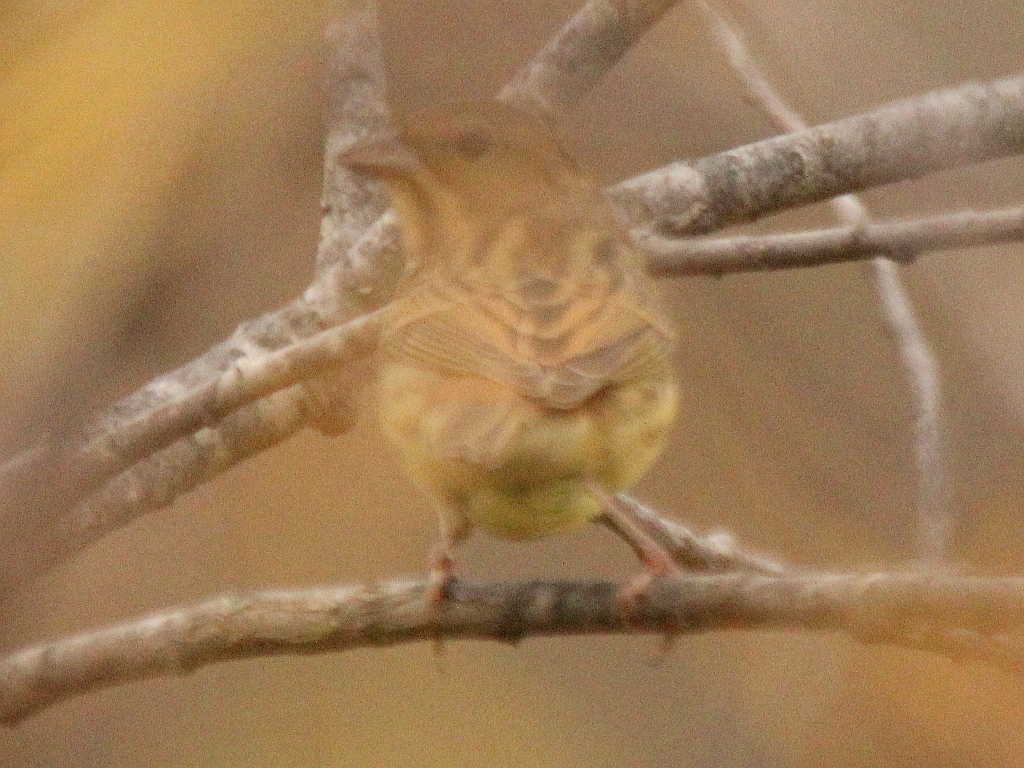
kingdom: Animalia
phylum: Chordata
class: Aves
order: Passeriformes
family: Emberizidae
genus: Emberiza
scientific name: Emberiza rutila
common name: Chestnut bunting
